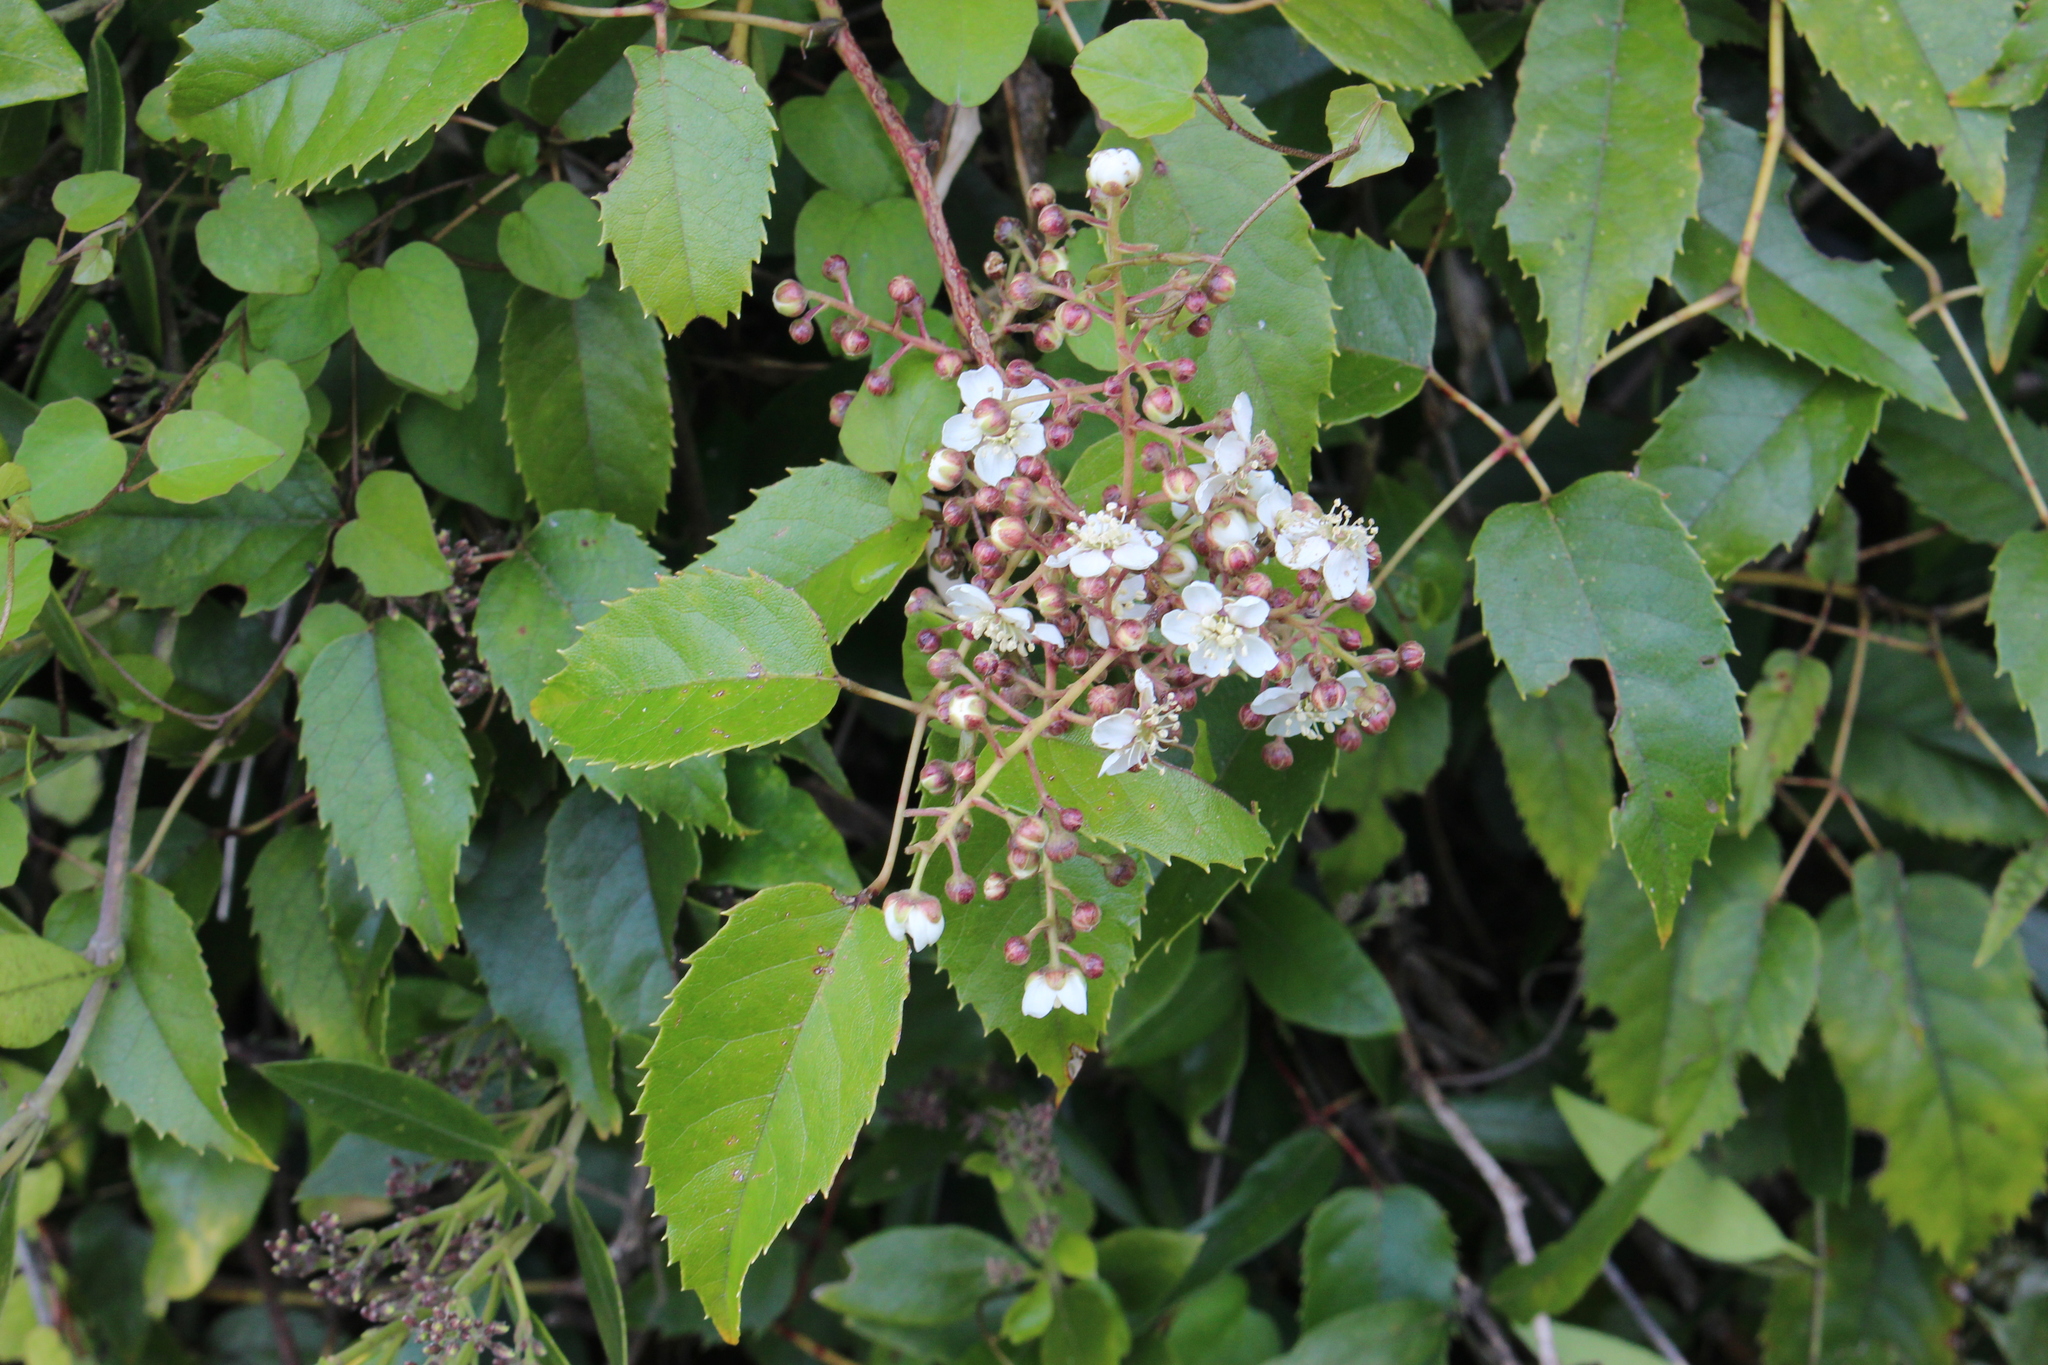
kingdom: Plantae
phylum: Tracheophyta
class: Magnoliopsida
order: Rosales
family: Rosaceae
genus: Rubus
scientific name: Rubus cissoides
